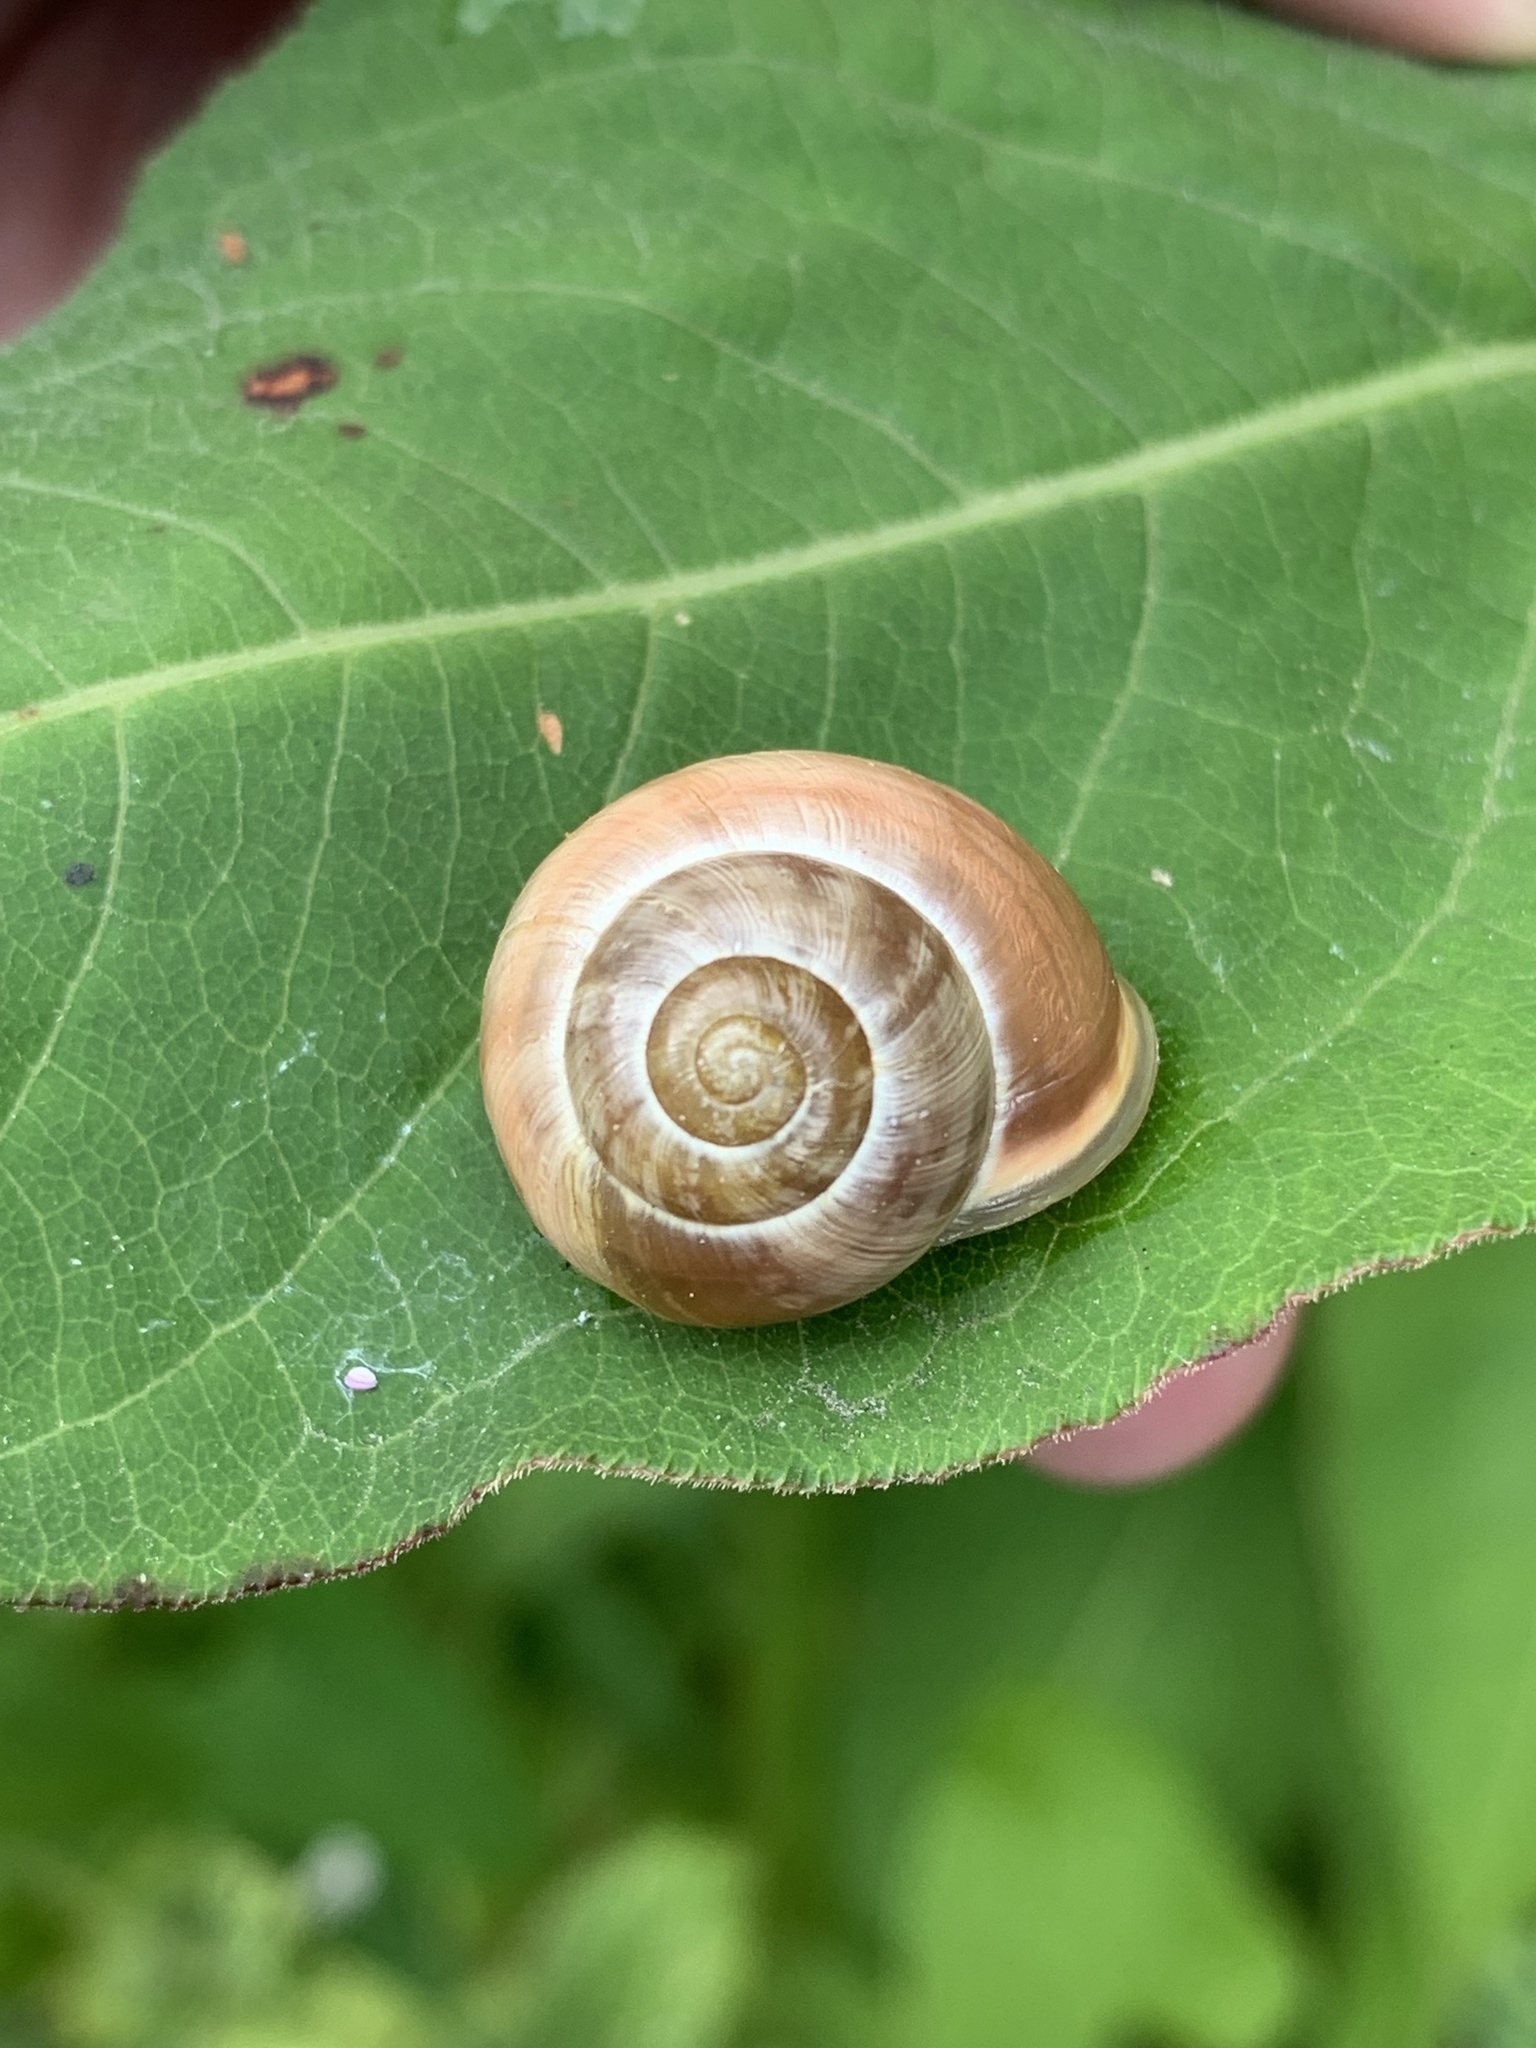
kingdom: Animalia
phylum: Mollusca
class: Gastropoda
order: Stylommatophora
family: Helicidae
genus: Cepaea
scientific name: Cepaea hortensis
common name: White-lip gardensnail
